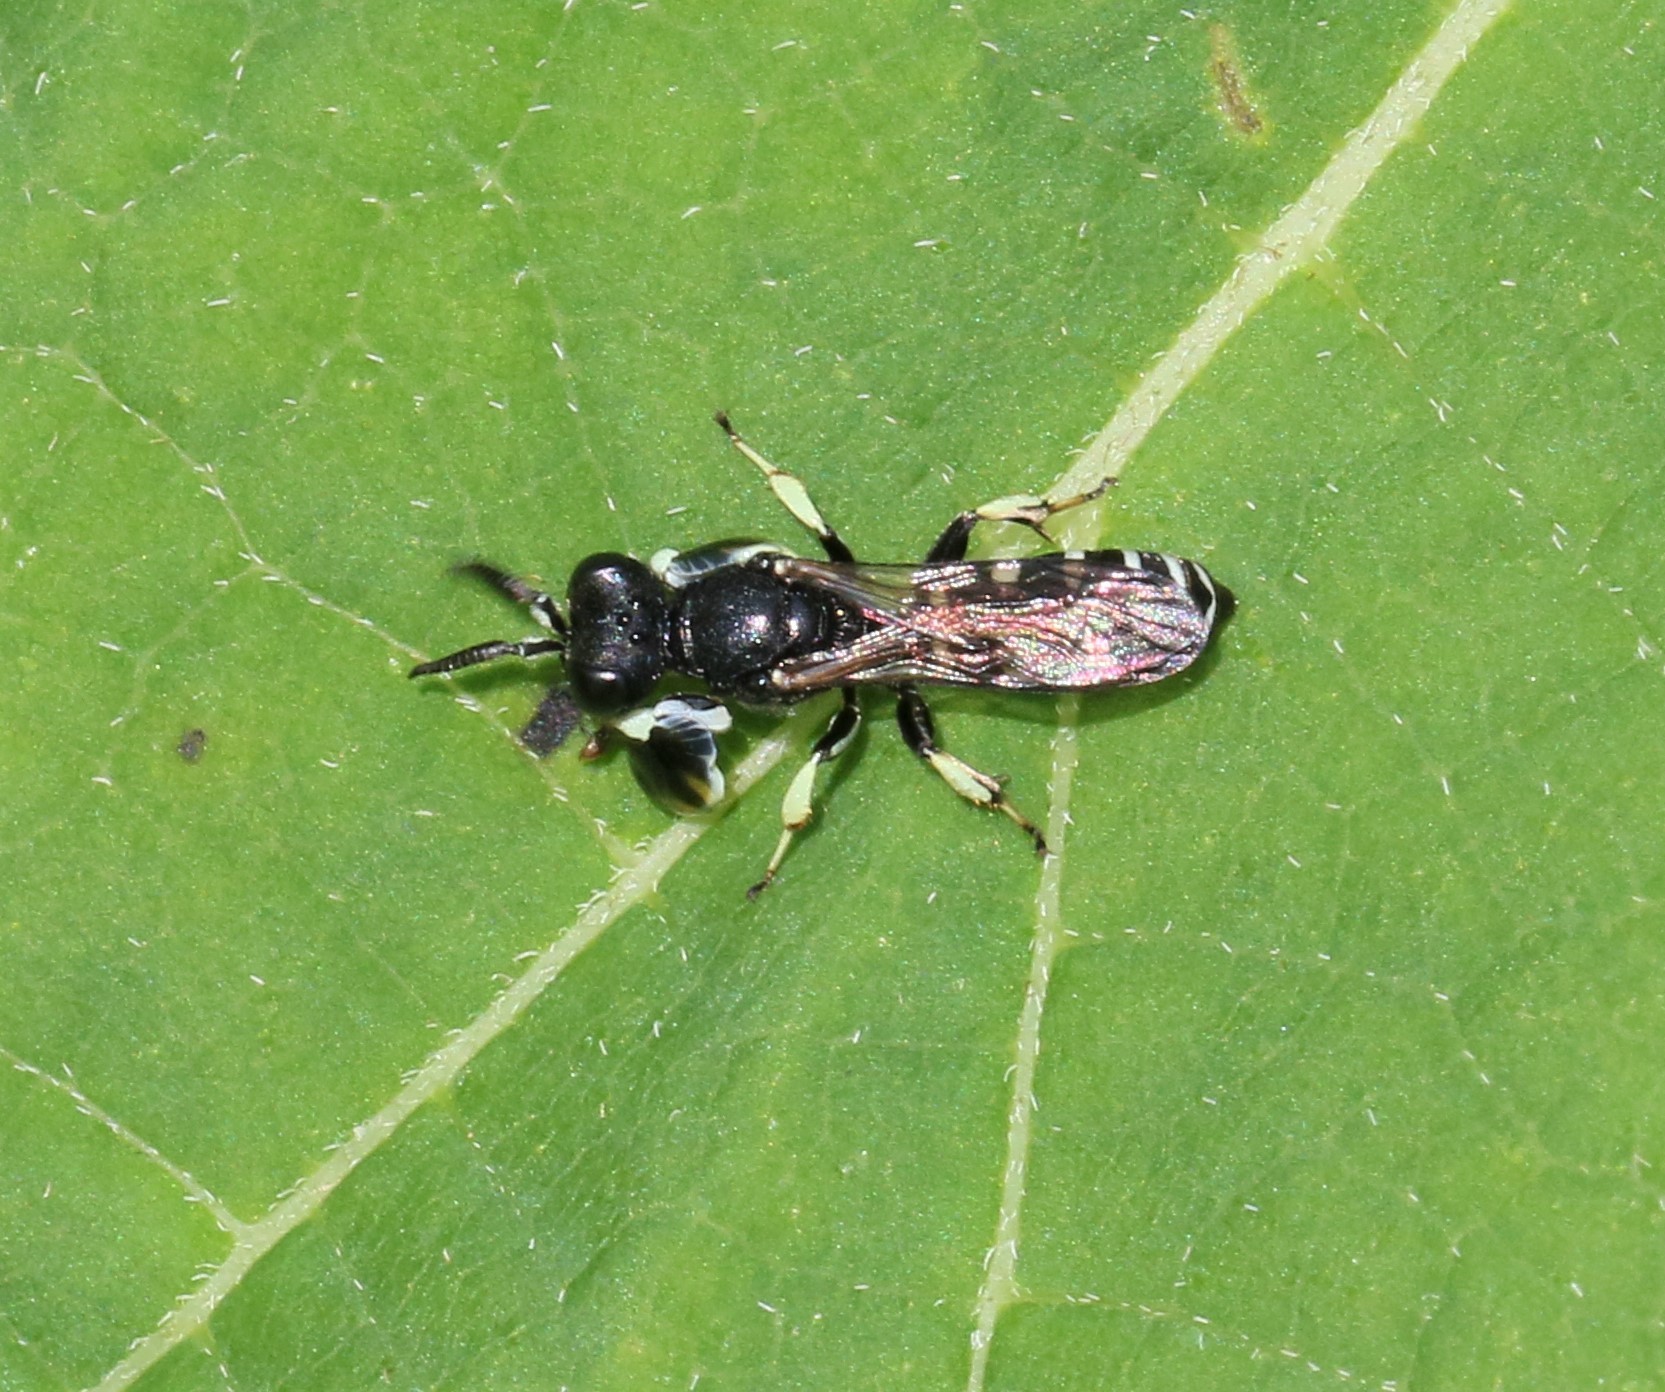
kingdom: Animalia
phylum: Arthropoda
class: Insecta
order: Hymenoptera
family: Crabronidae
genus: Crabro
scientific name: Crabro latipes
